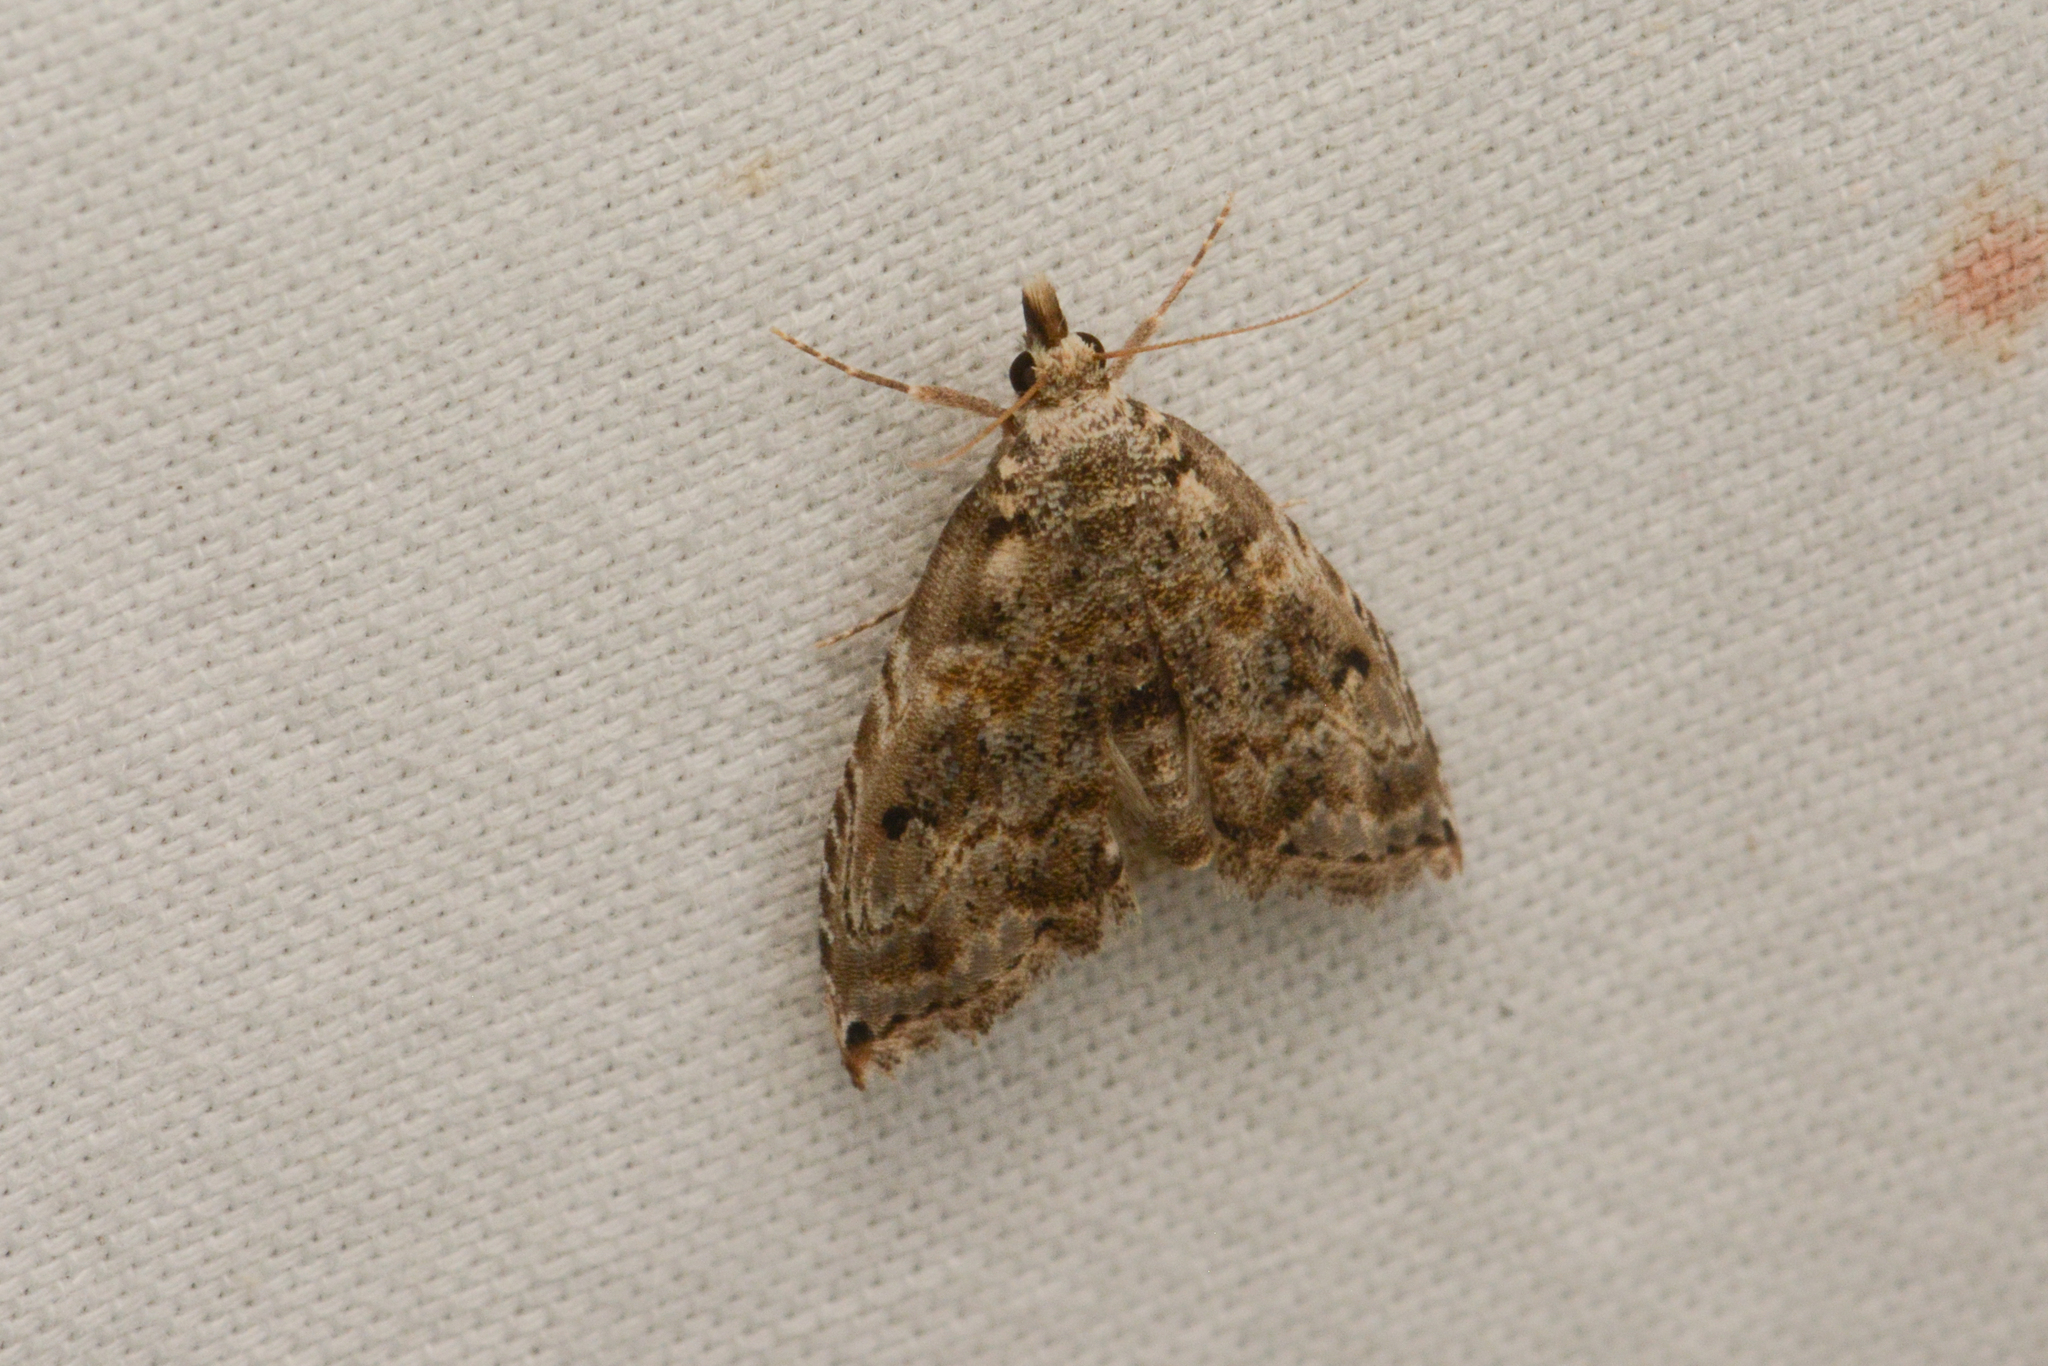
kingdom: Animalia
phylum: Arthropoda
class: Insecta
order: Lepidoptera
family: Noctuidae
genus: Phobolosia
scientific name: Phobolosia anfracta
